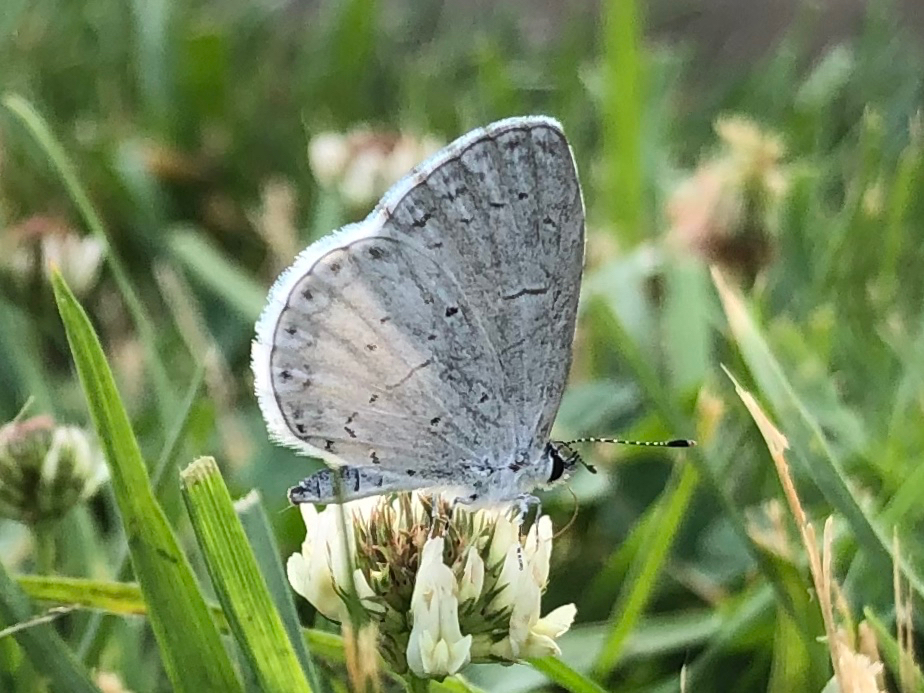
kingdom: Animalia
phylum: Arthropoda
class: Insecta
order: Lepidoptera
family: Lycaenidae
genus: Cyaniris
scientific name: Cyaniris neglecta
